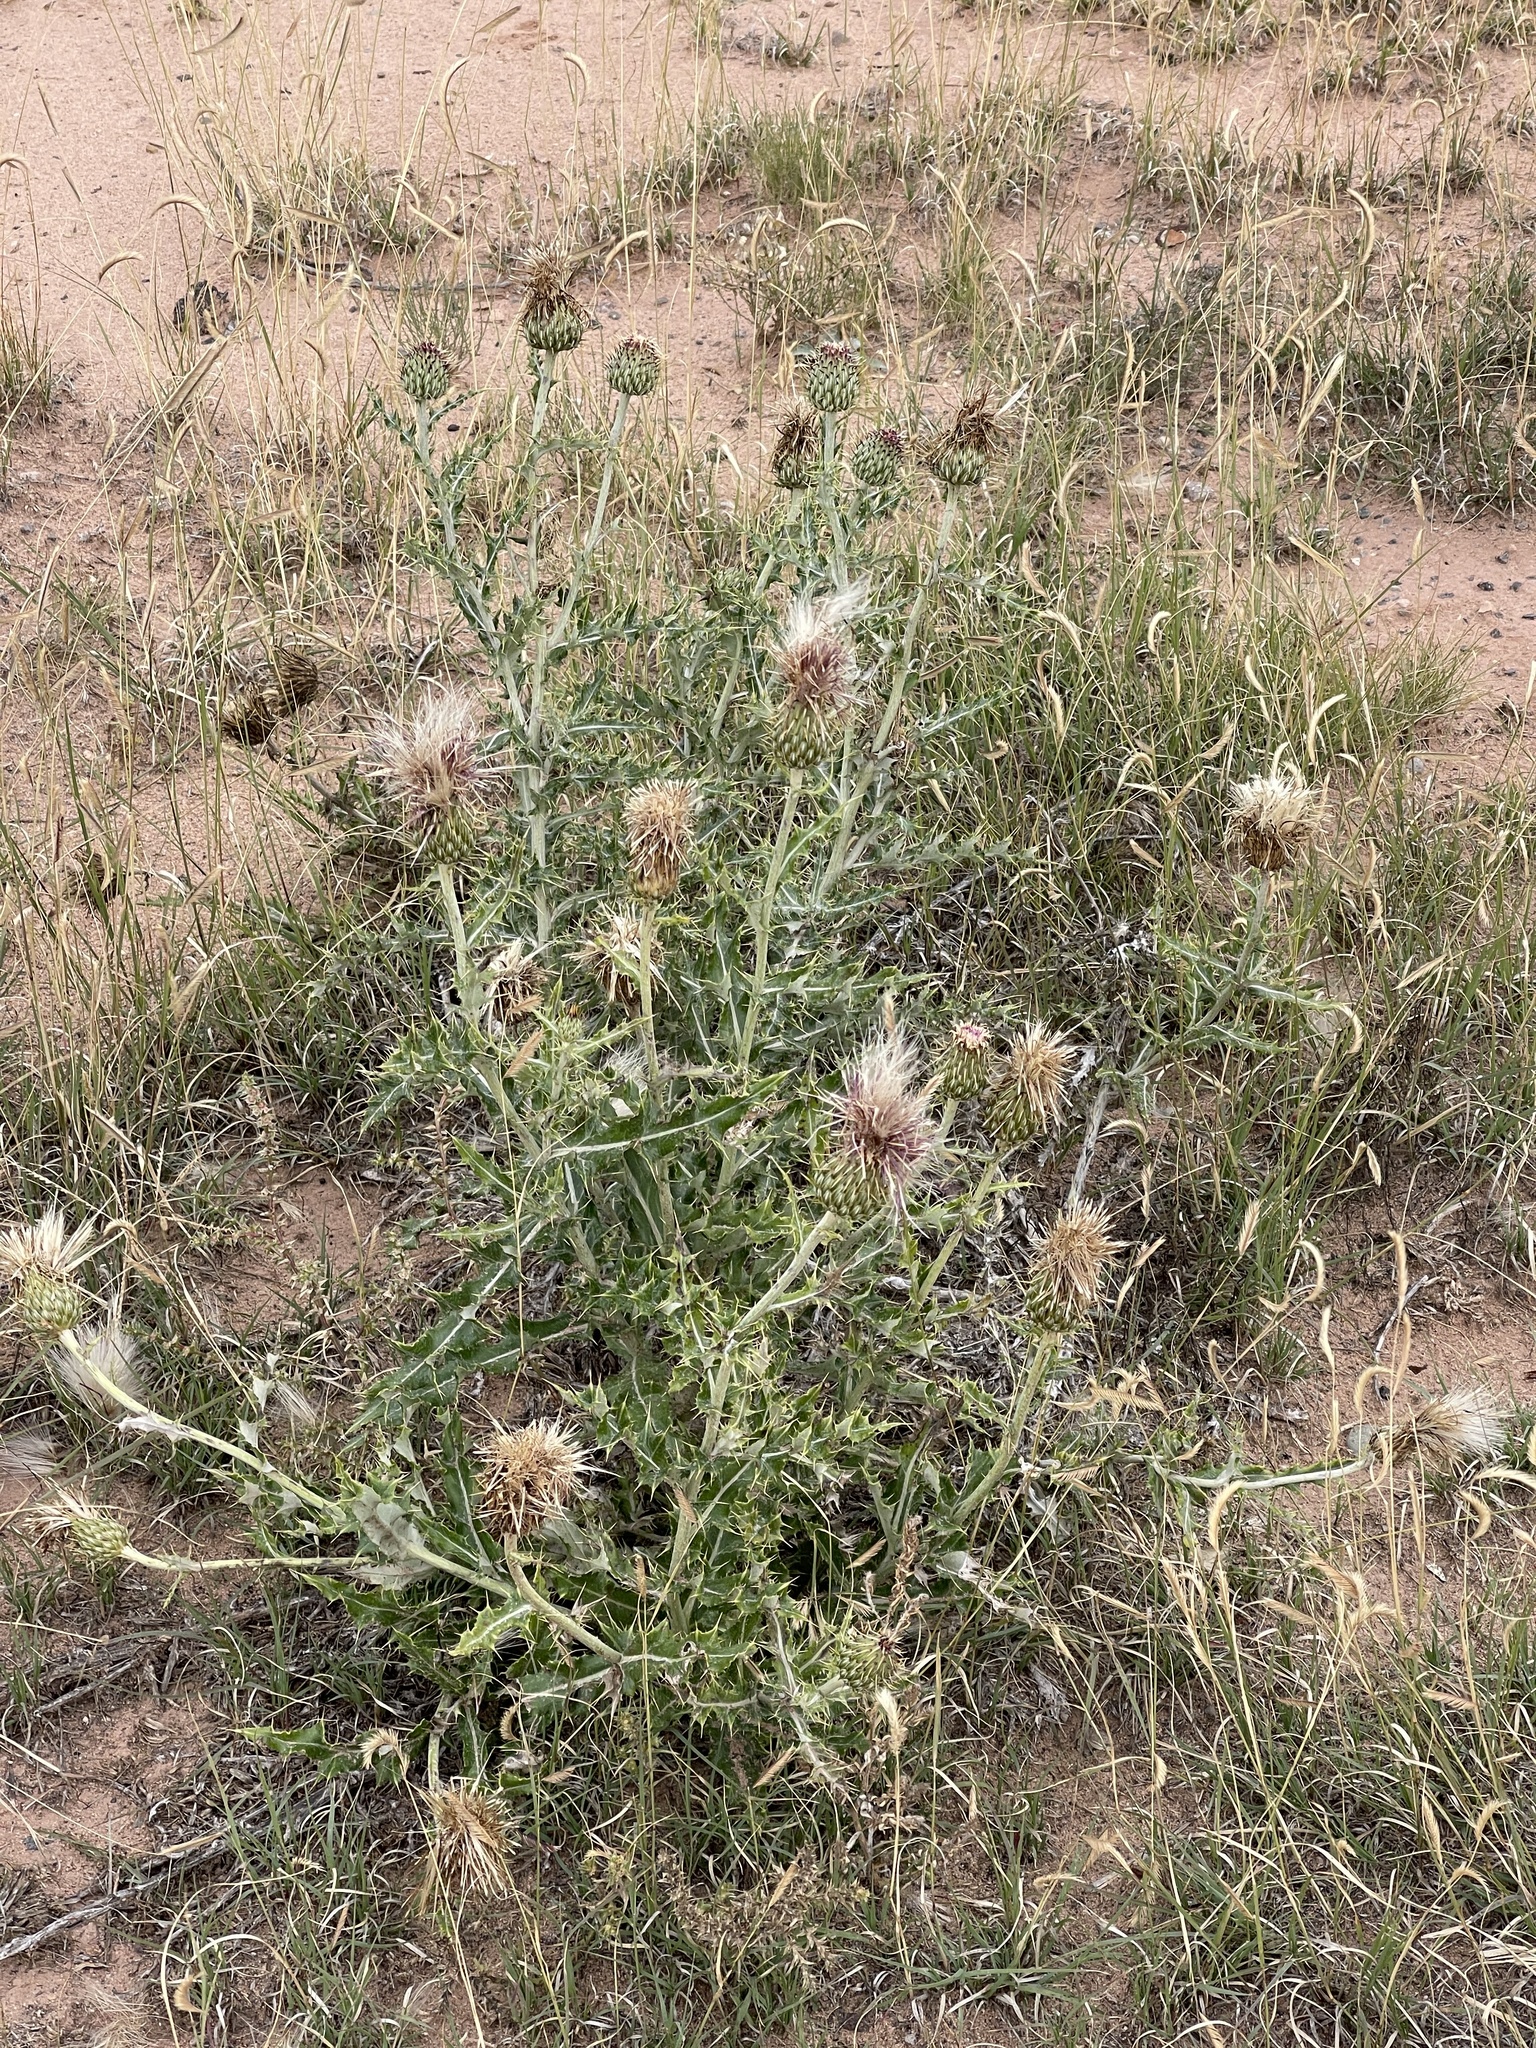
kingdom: Plantae
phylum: Tracheophyta
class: Magnoliopsida
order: Asterales
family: Asteraceae
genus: Cirsium
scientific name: Cirsium ochrocentrum
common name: Yellow-spine thistle
